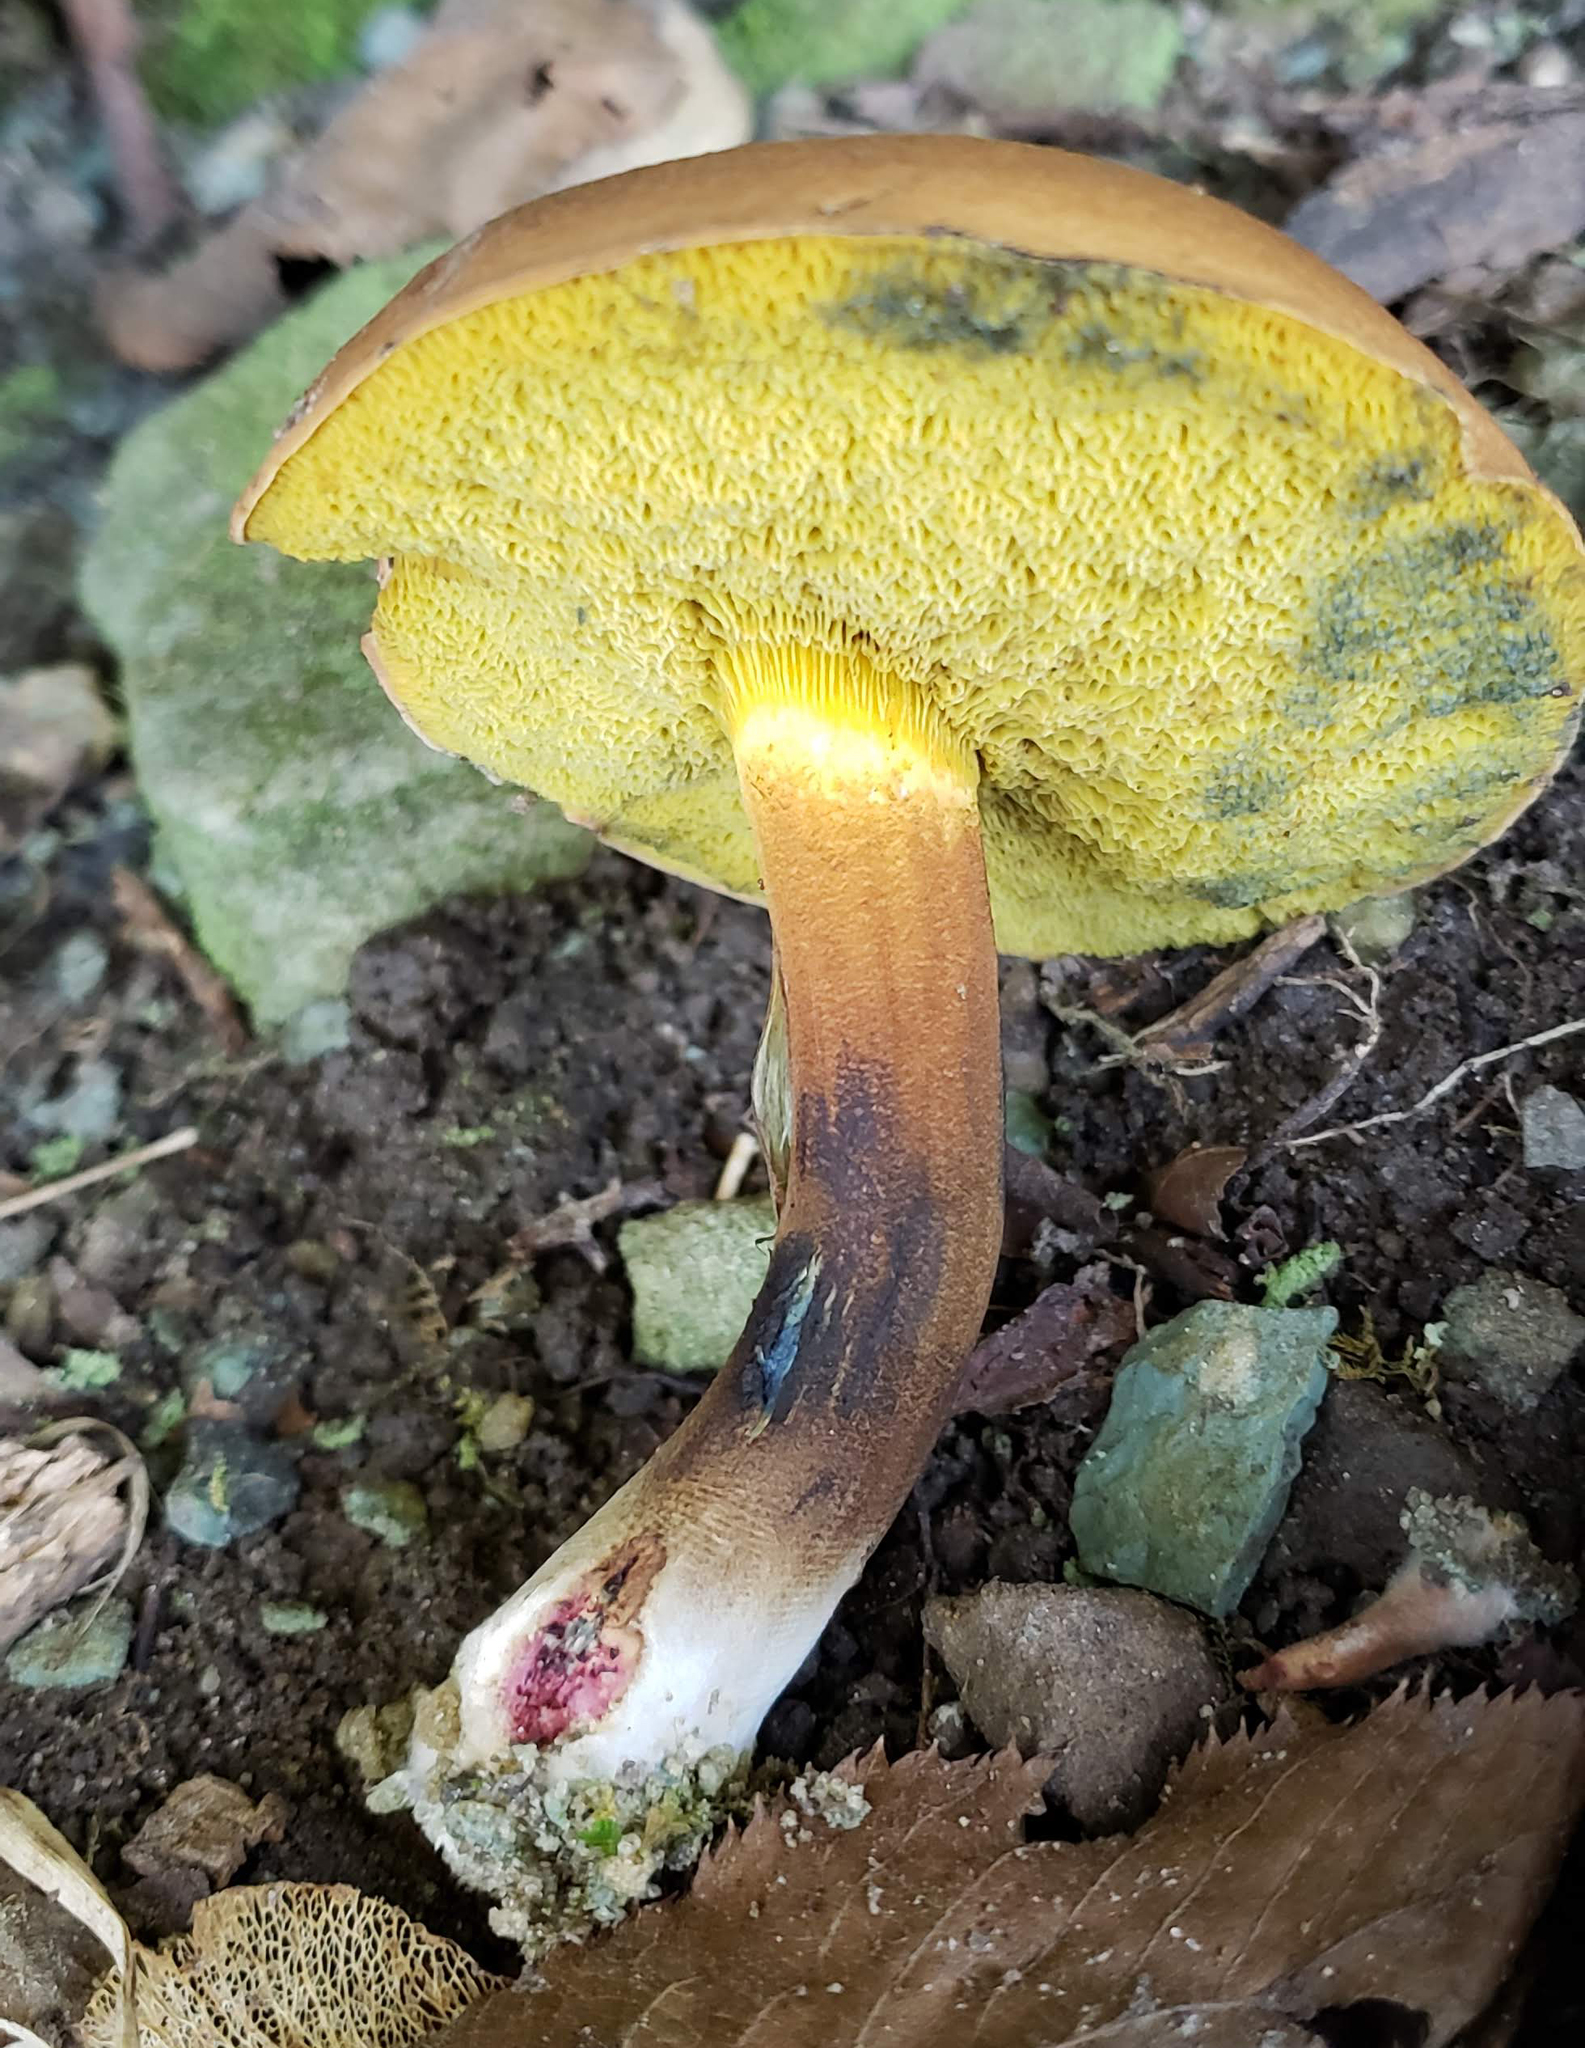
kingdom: Fungi
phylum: Basidiomycota
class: Agaricomycetes
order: Boletales
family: Boletaceae
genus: Cyanoboletus
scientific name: Cyanoboletus pulverulentus
